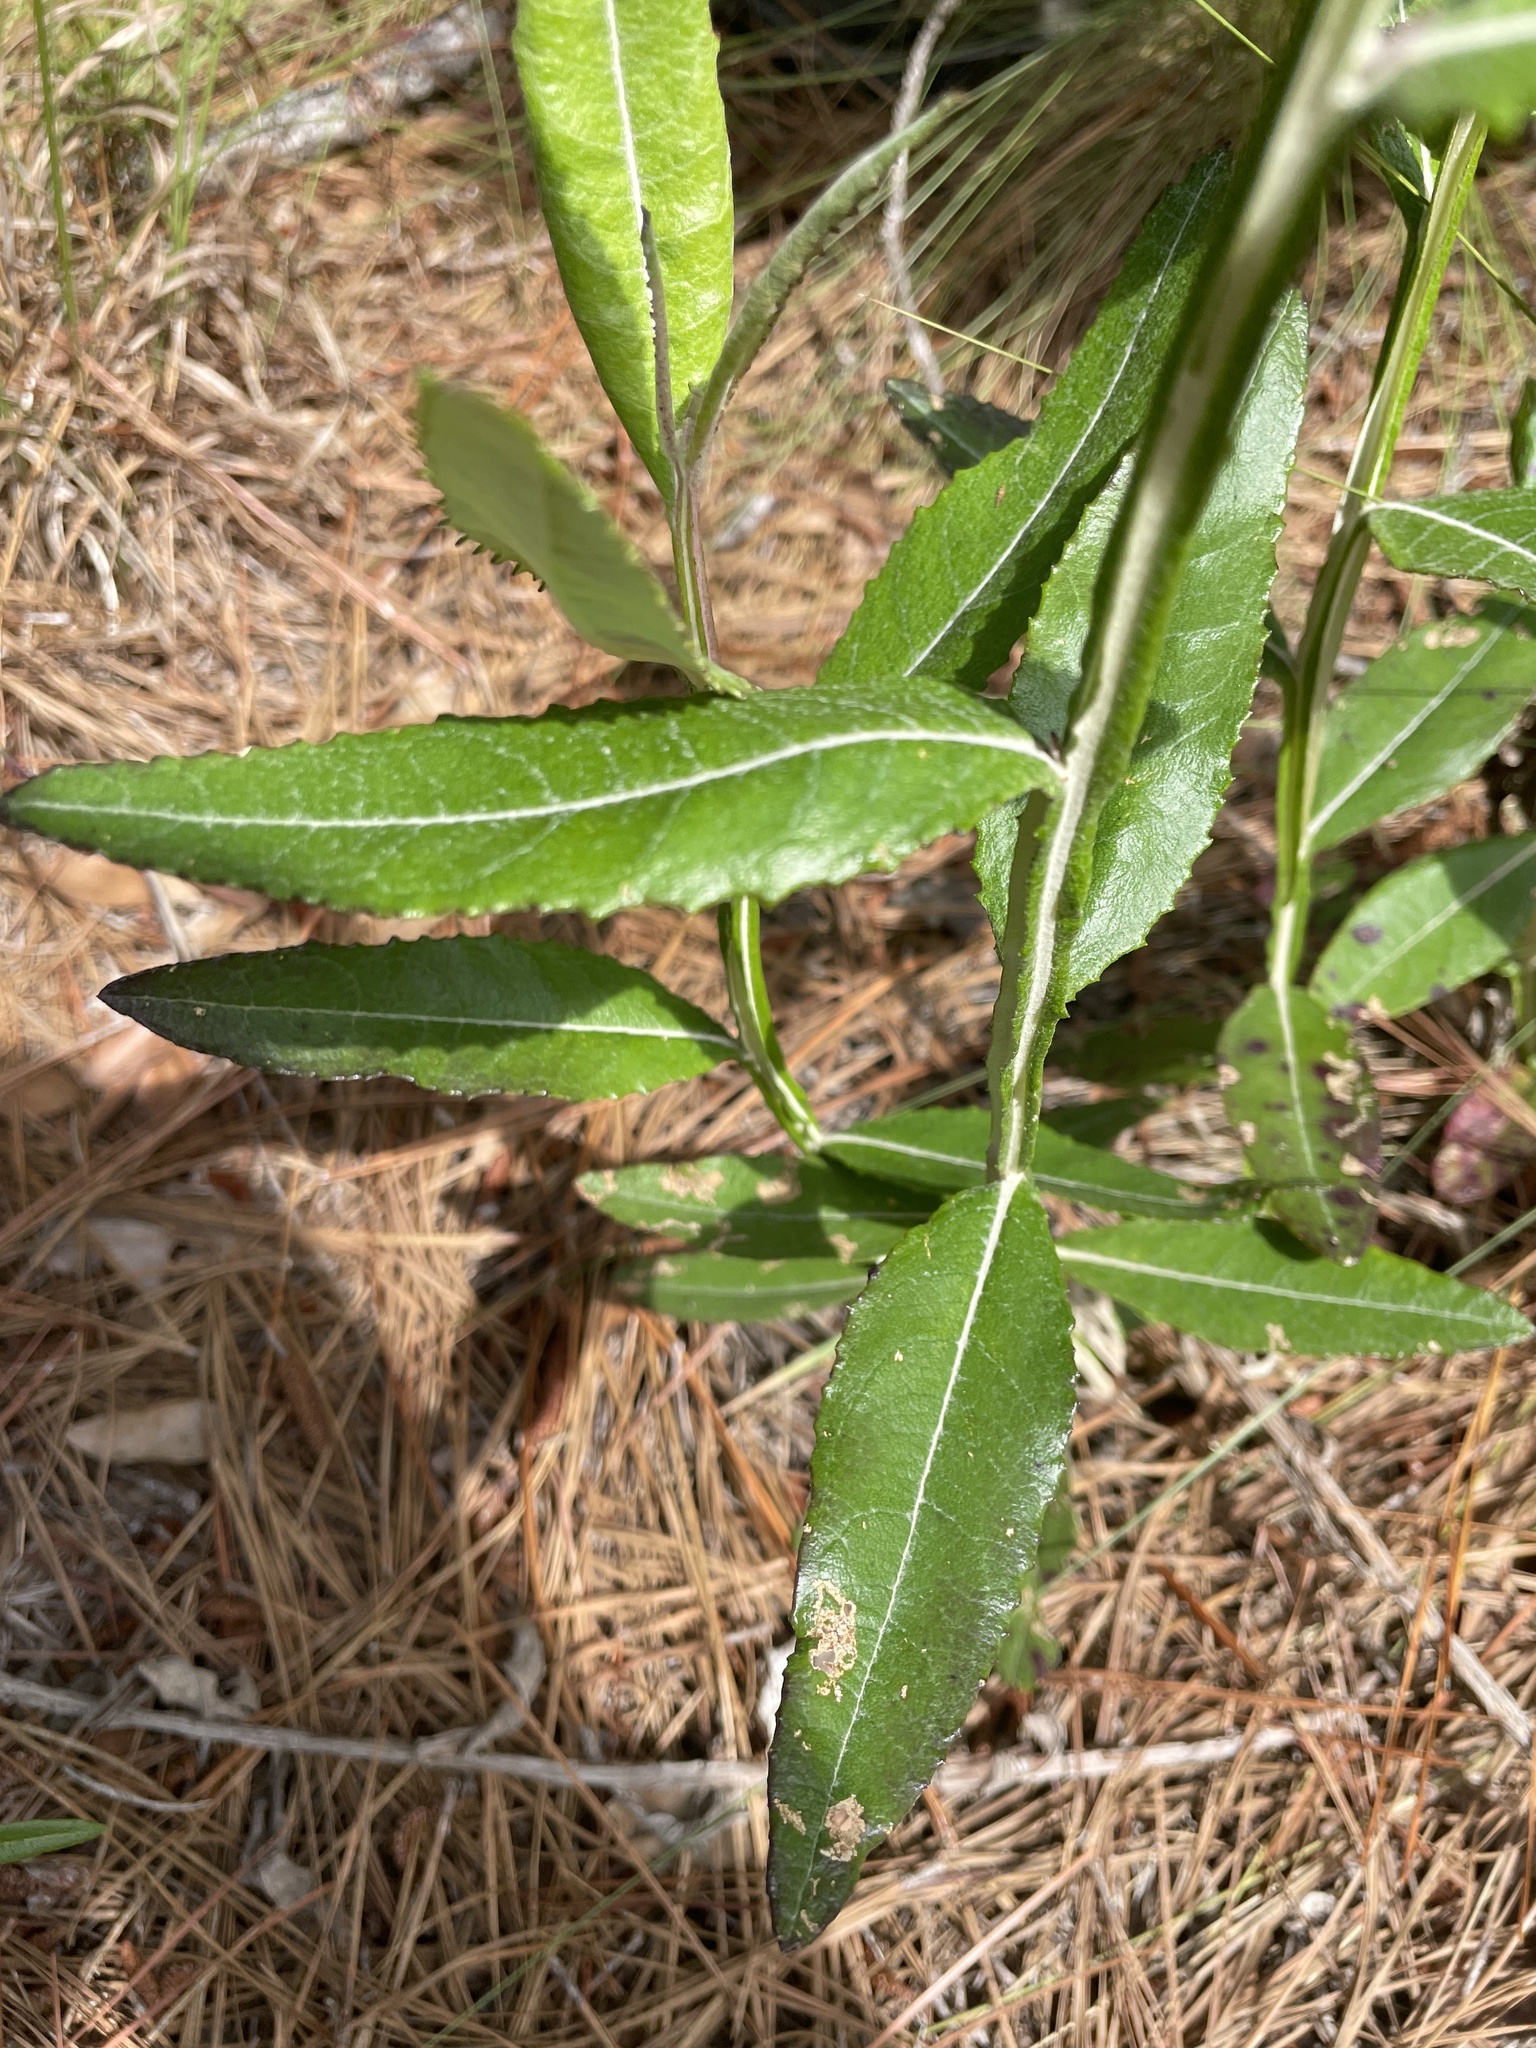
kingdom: Plantae
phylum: Tracheophyta
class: Magnoliopsida
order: Asterales
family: Asteraceae
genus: Pterocaulon
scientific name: Pterocaulon pycnostachyum
